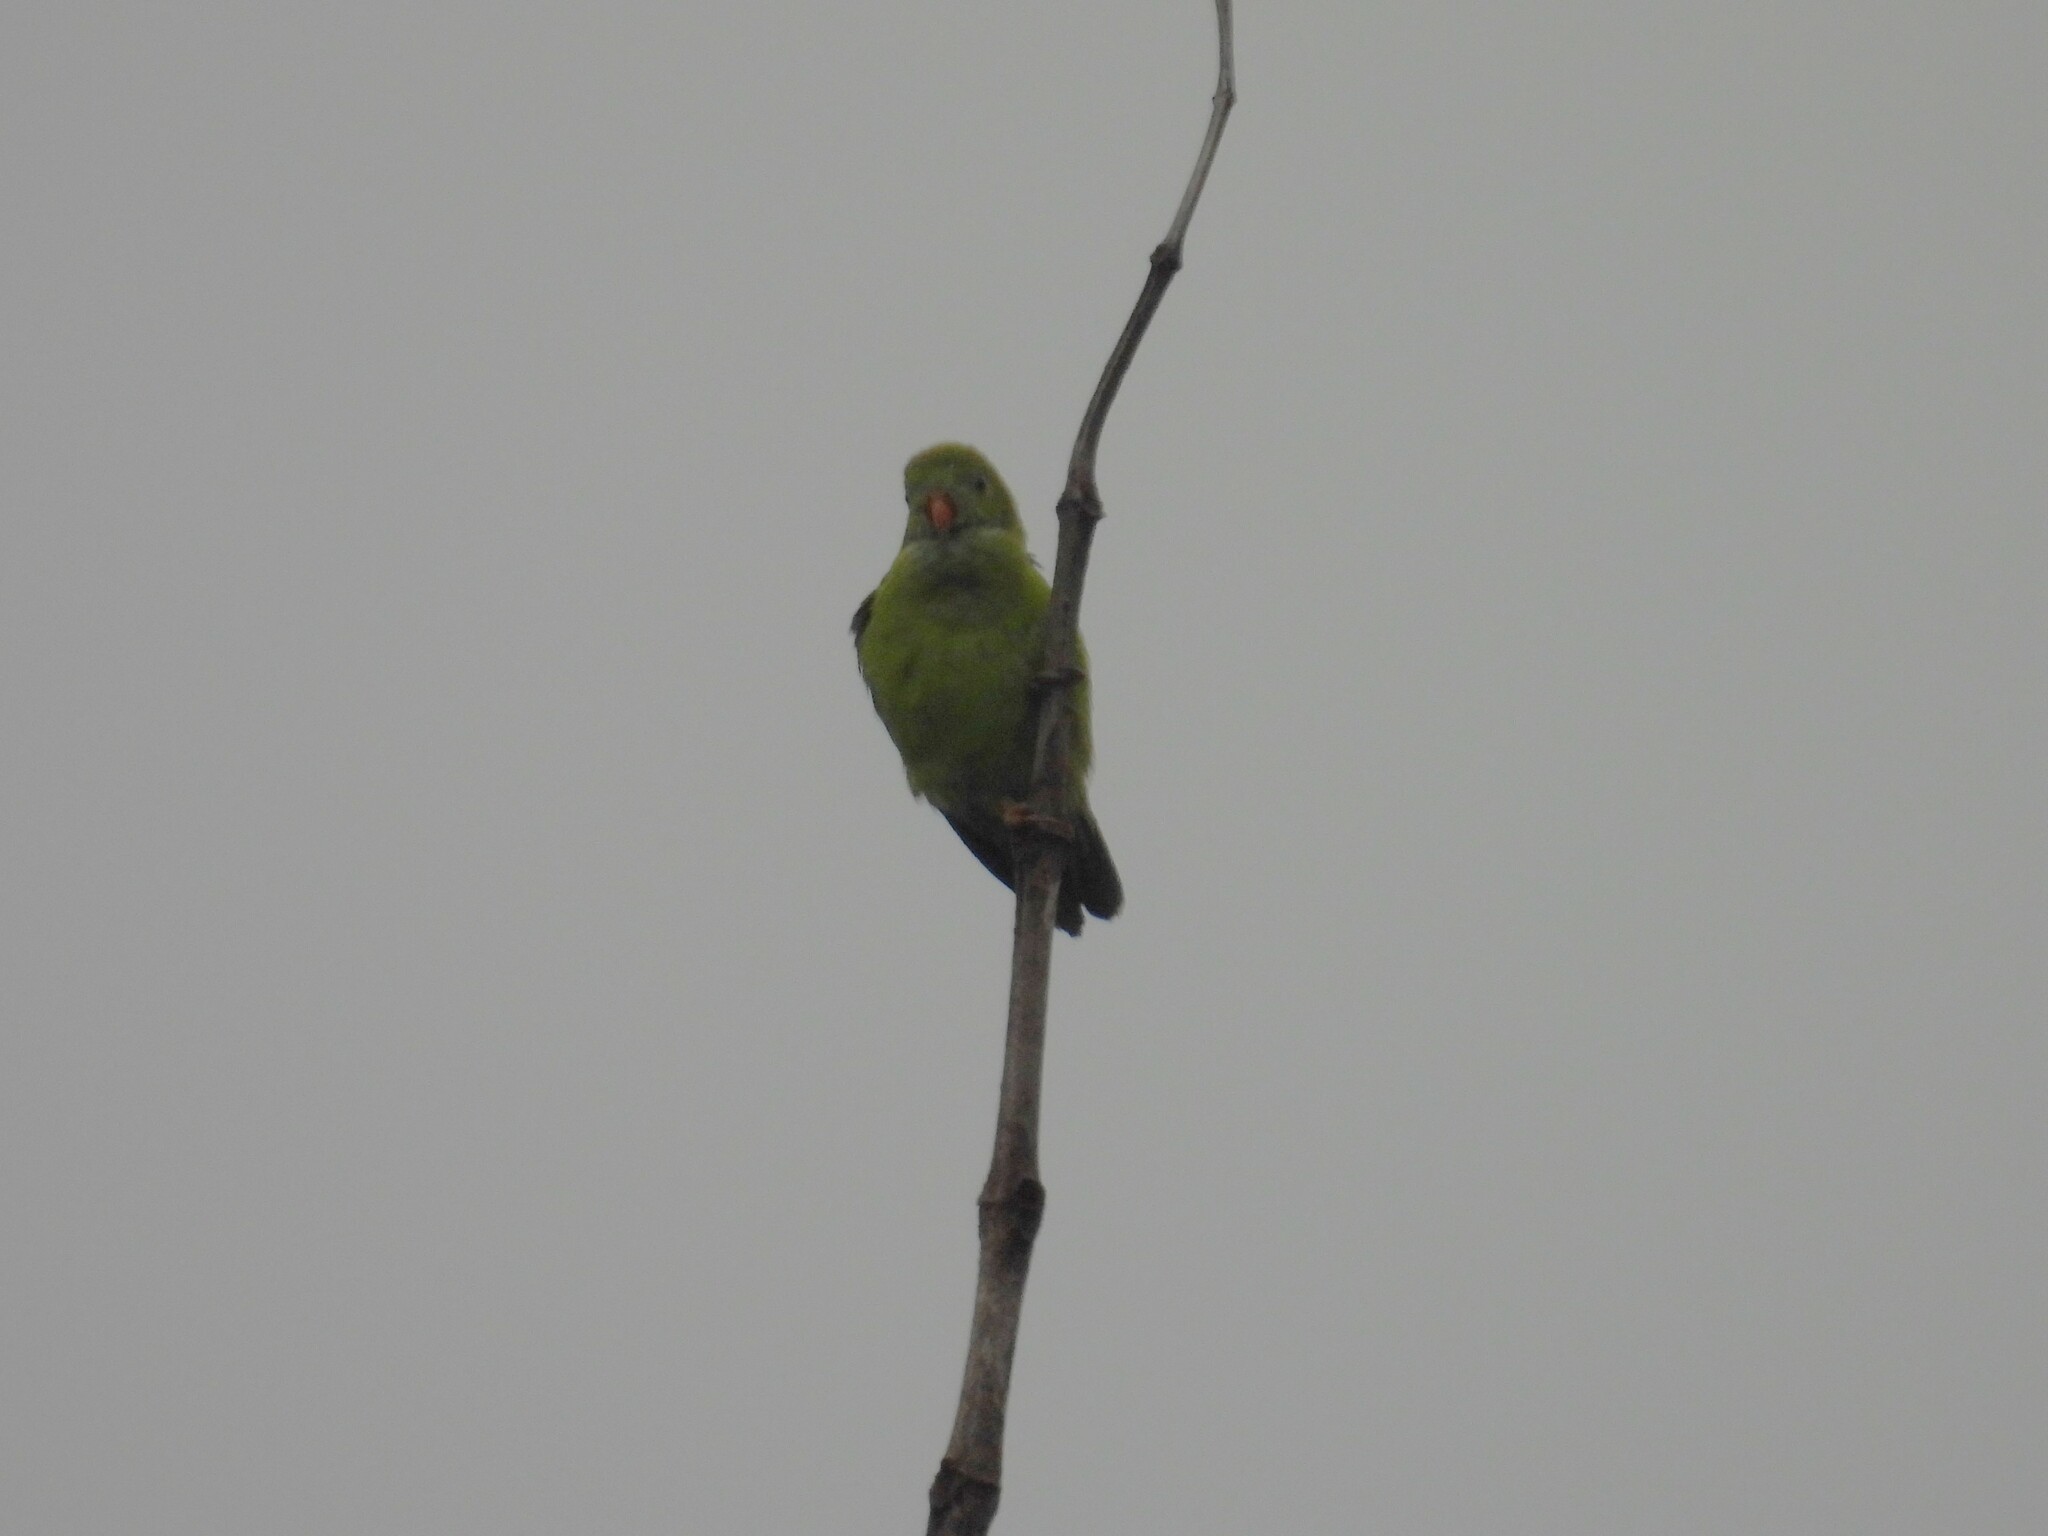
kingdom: Animalia
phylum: Chordata
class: Aves
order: Psittaciformes
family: Psittacidae
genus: Loriculus
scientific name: Loriculus vernalis
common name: Vernal hanging parrot
